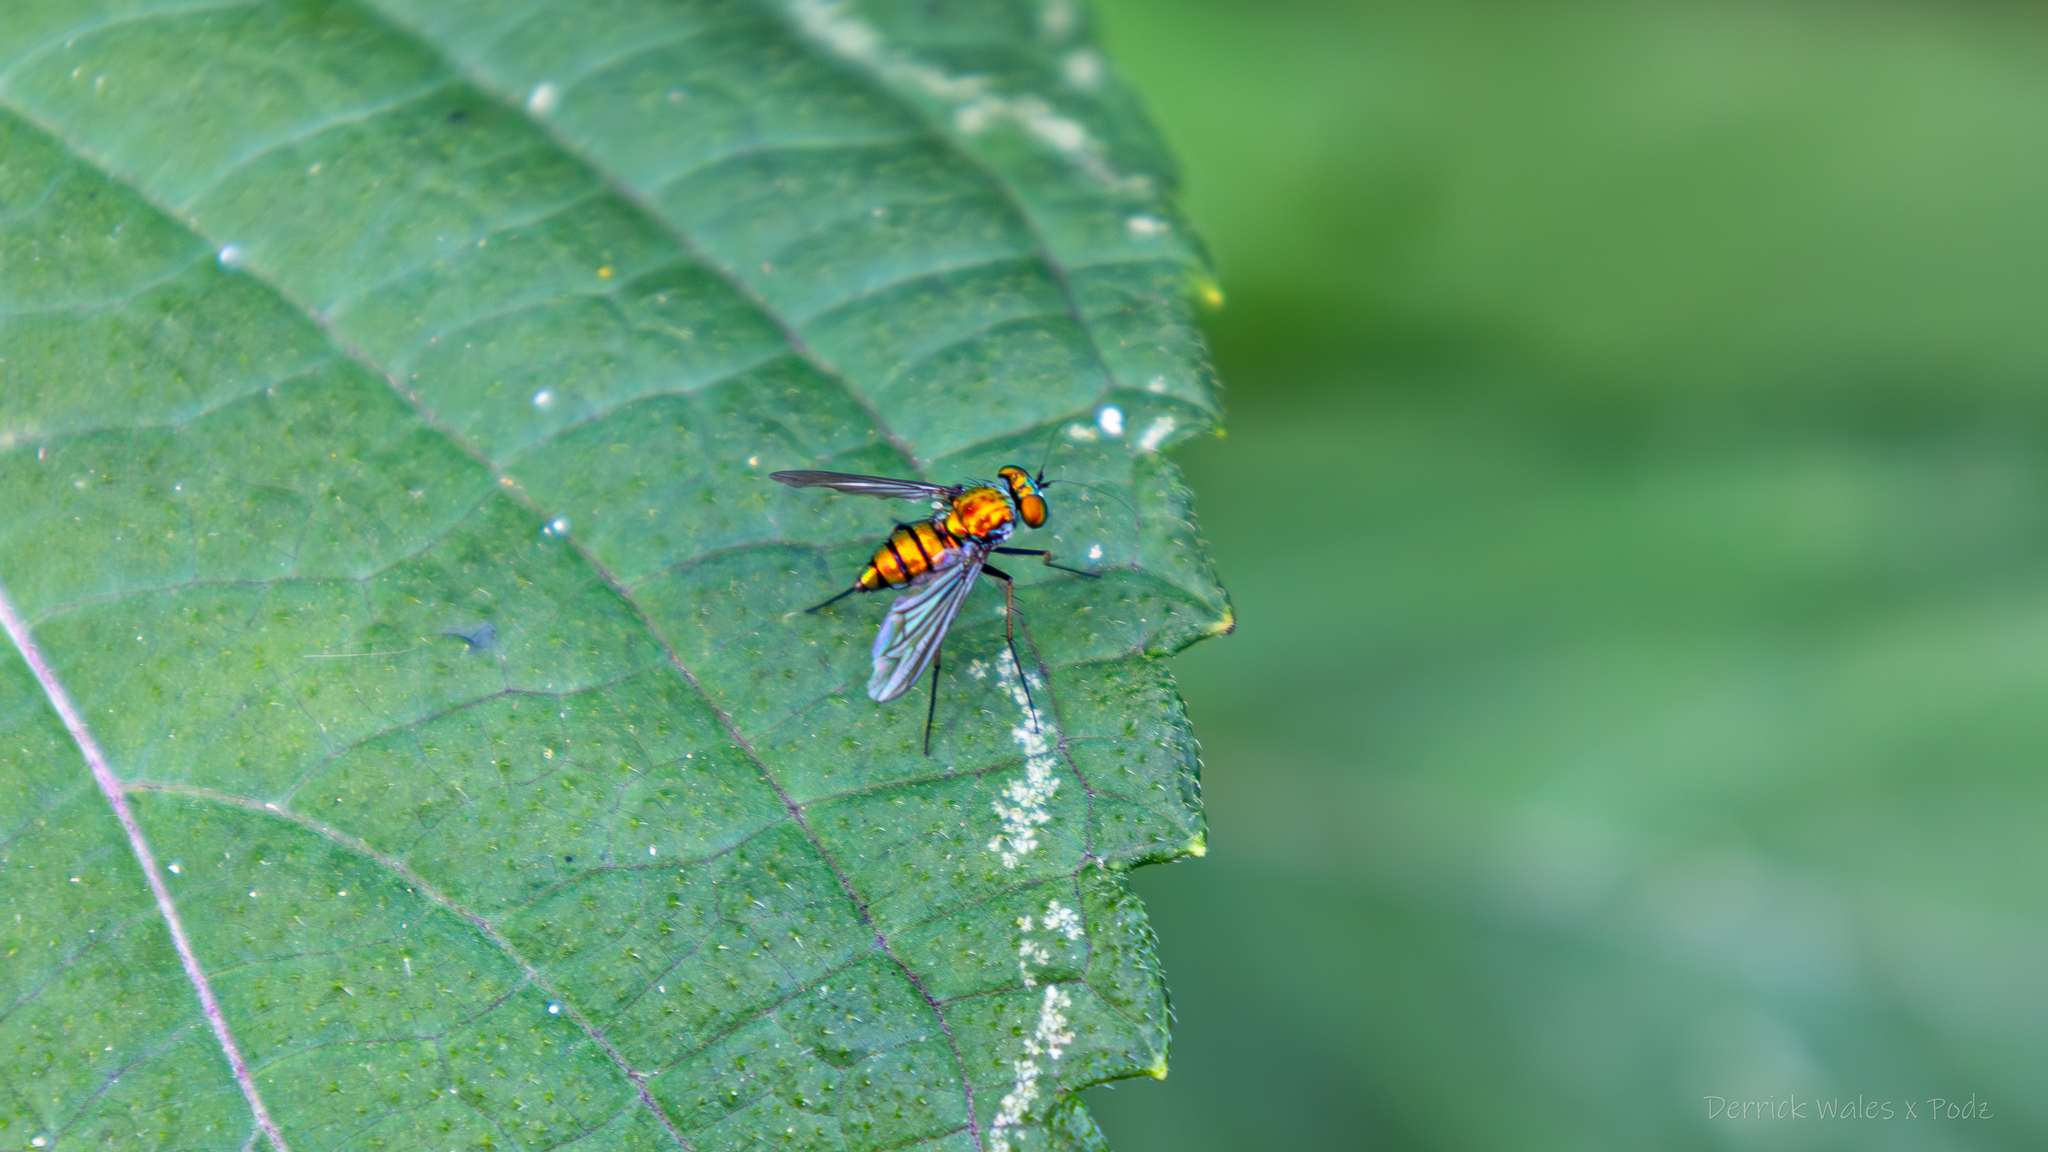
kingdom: Animalia
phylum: Arthropoda
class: Insecta
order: Diptera
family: Dolichopodidae
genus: Condylostylus
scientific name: Condylostylus
